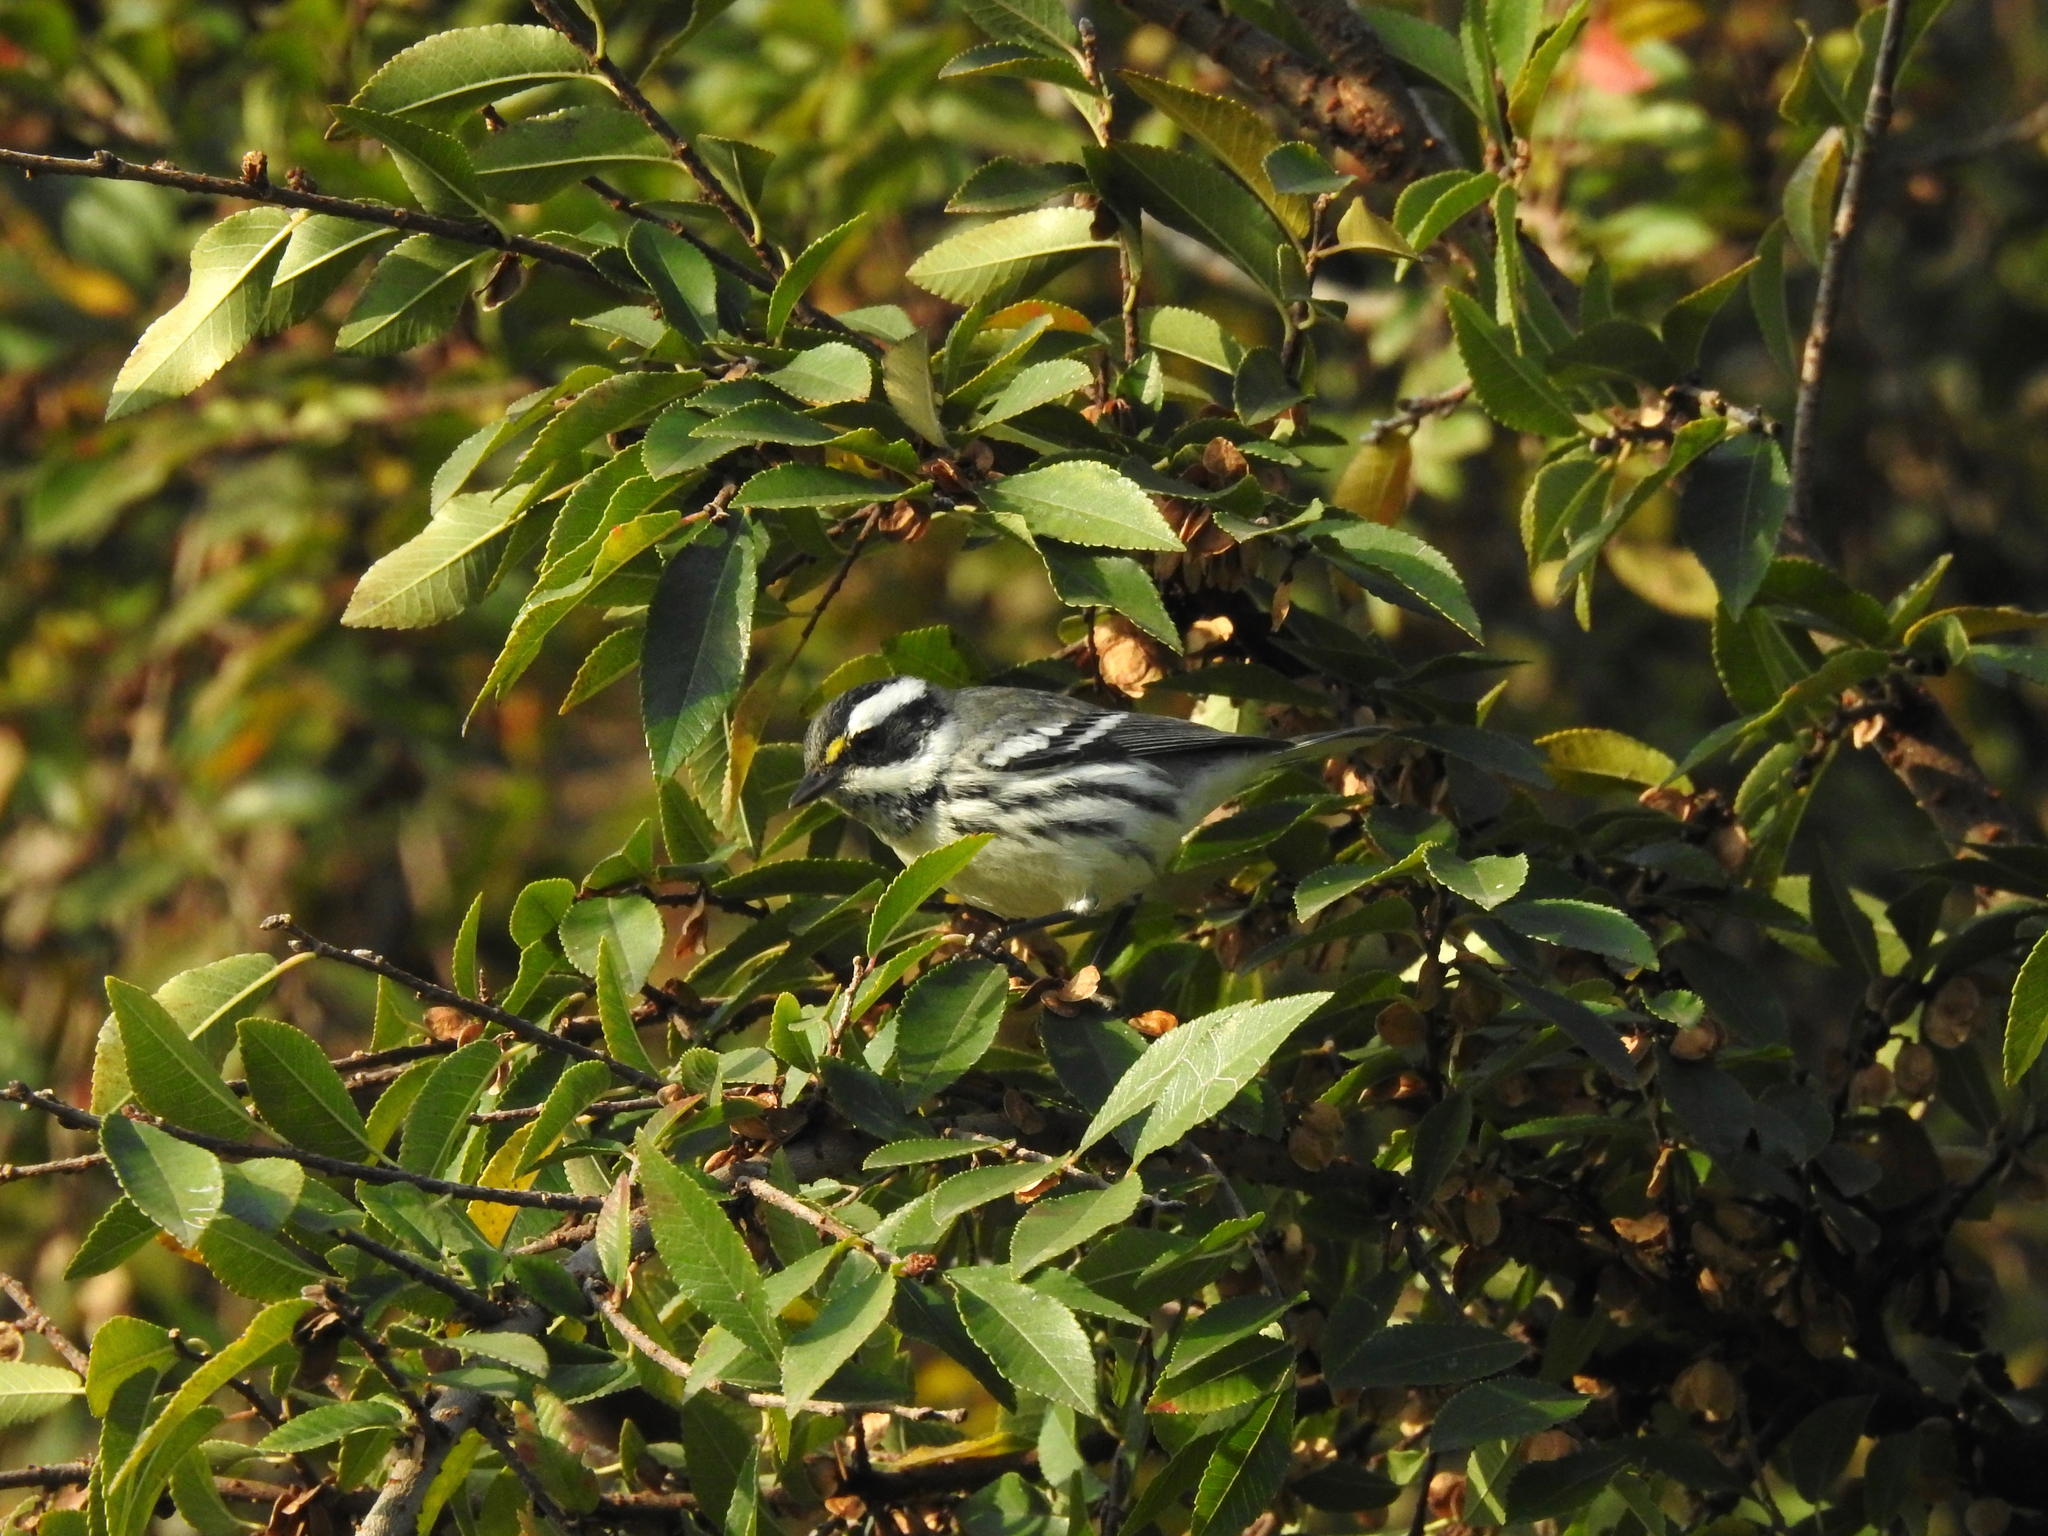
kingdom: Animalia
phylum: Chordata
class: Aves
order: Passeriformes
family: Parulidae
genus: Setophaga
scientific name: Setophaga nigrescens
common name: Black-throated gray warbler
